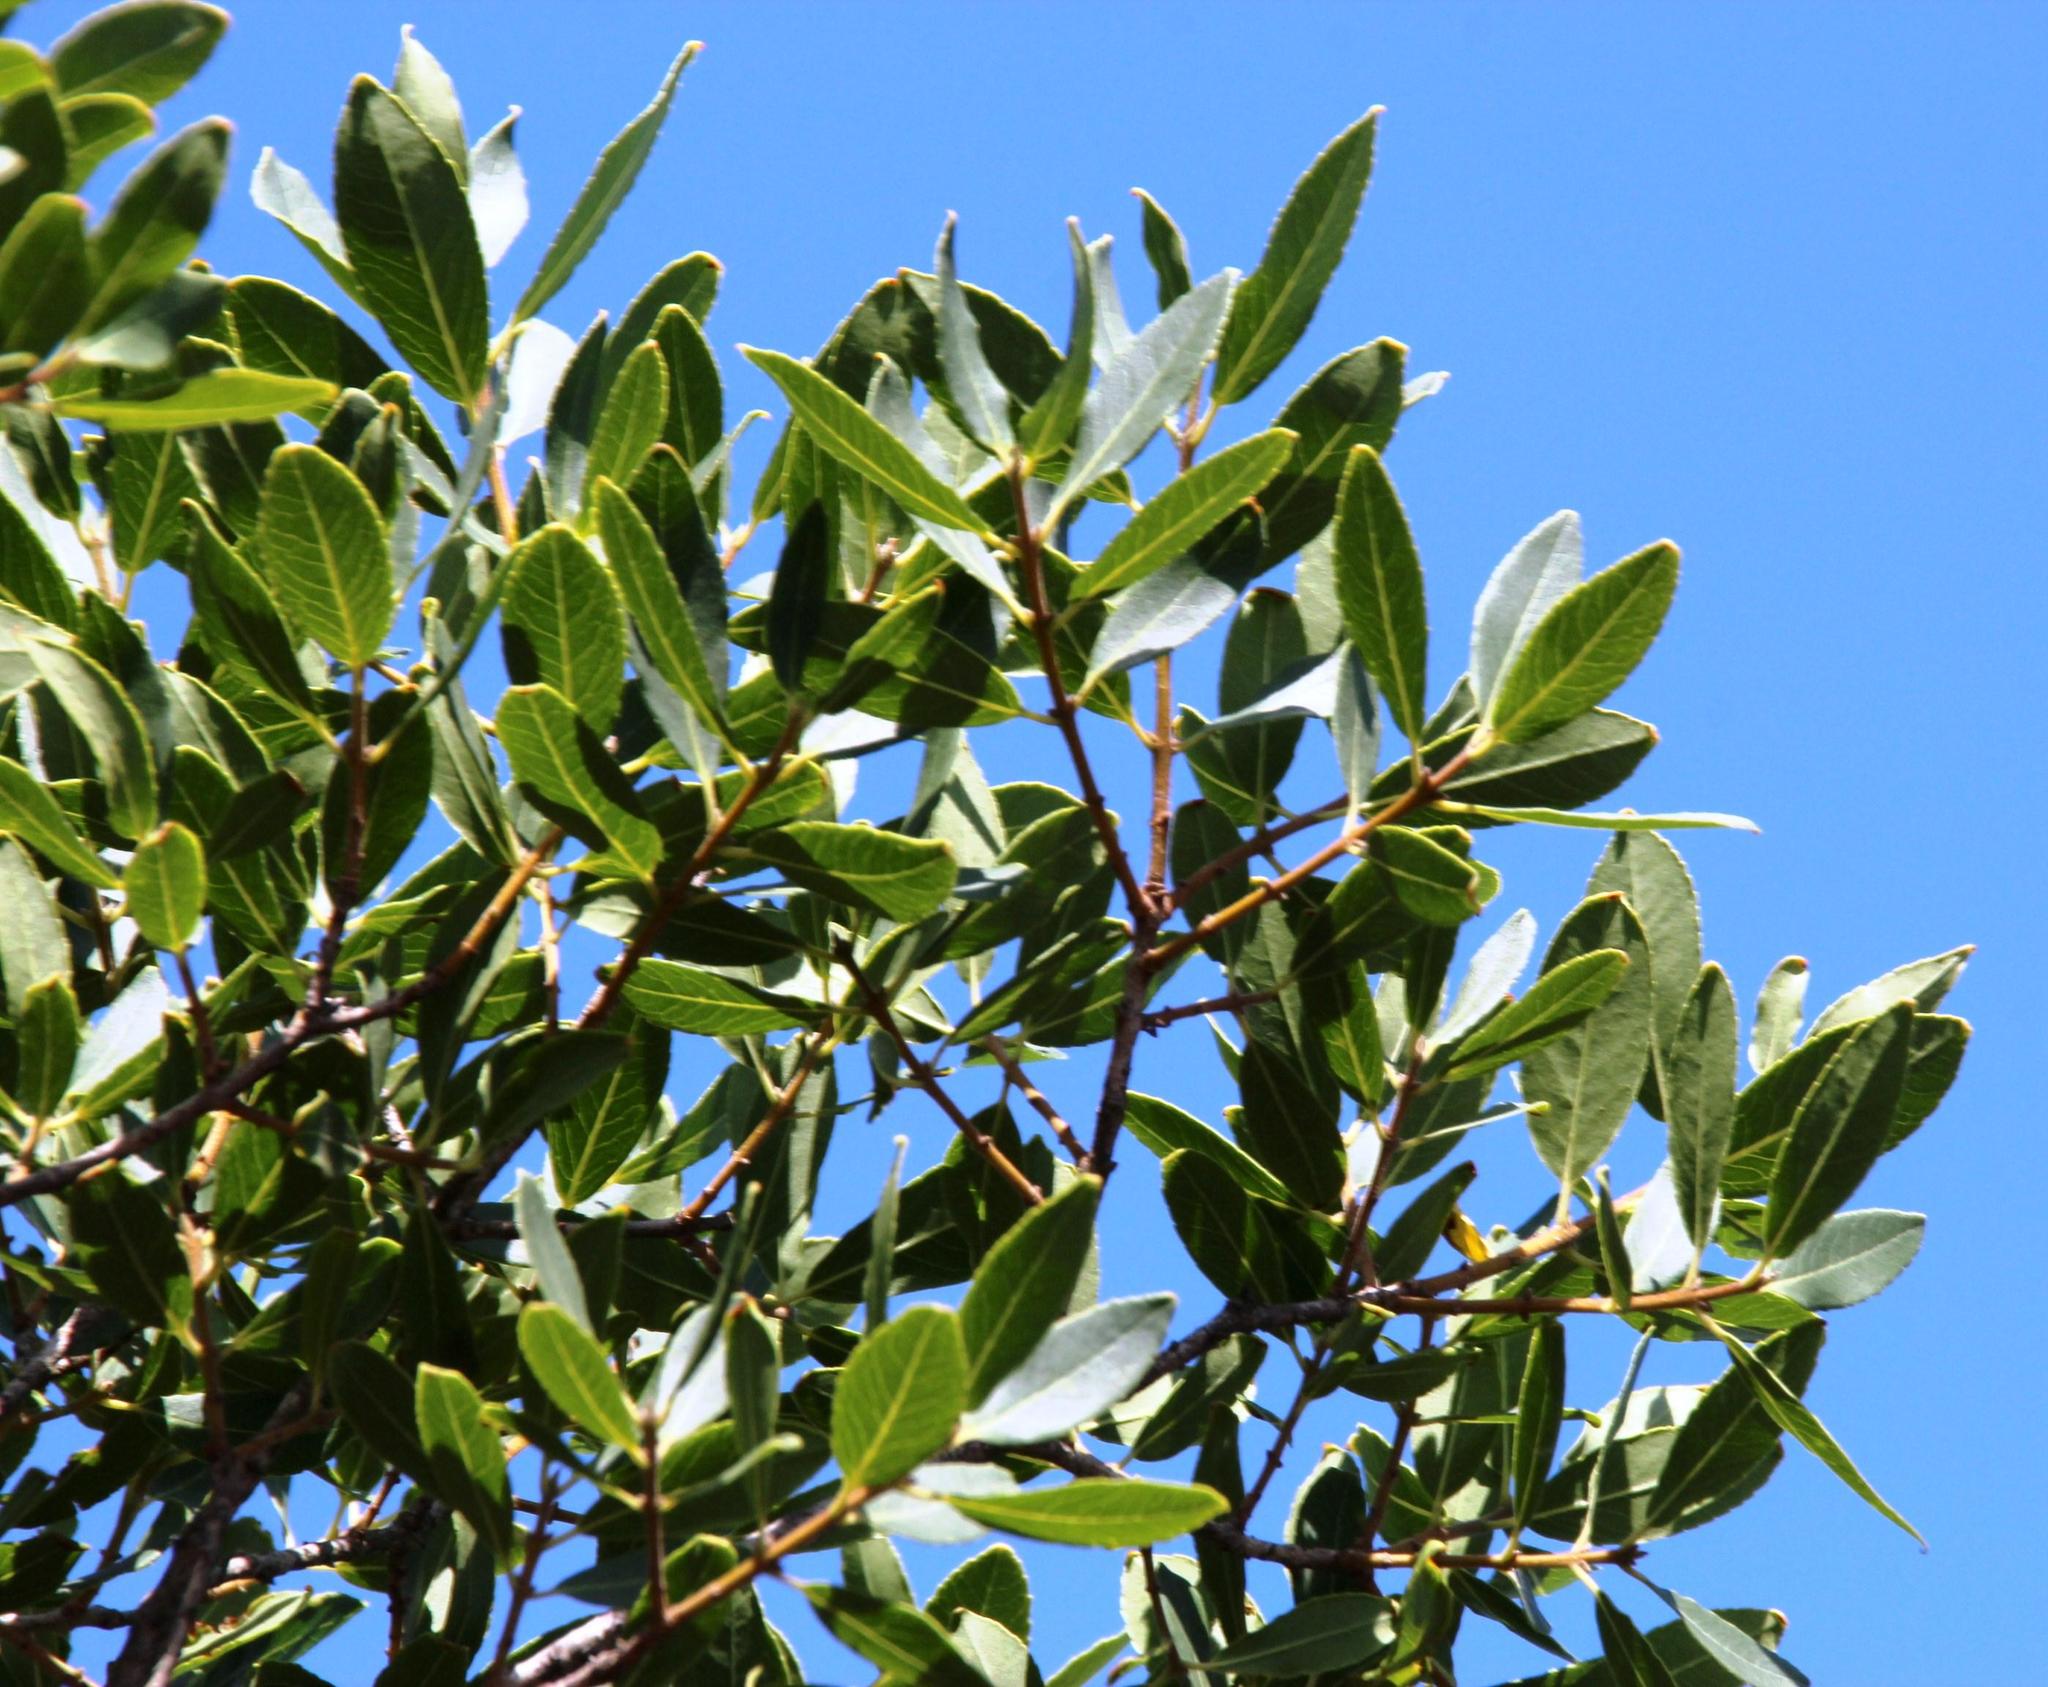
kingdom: Plantae
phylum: Tracheophyta
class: Magnoliopsida
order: Lamiales
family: Oleaceae
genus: Phillyrea
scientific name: Phillyrea latifolia
